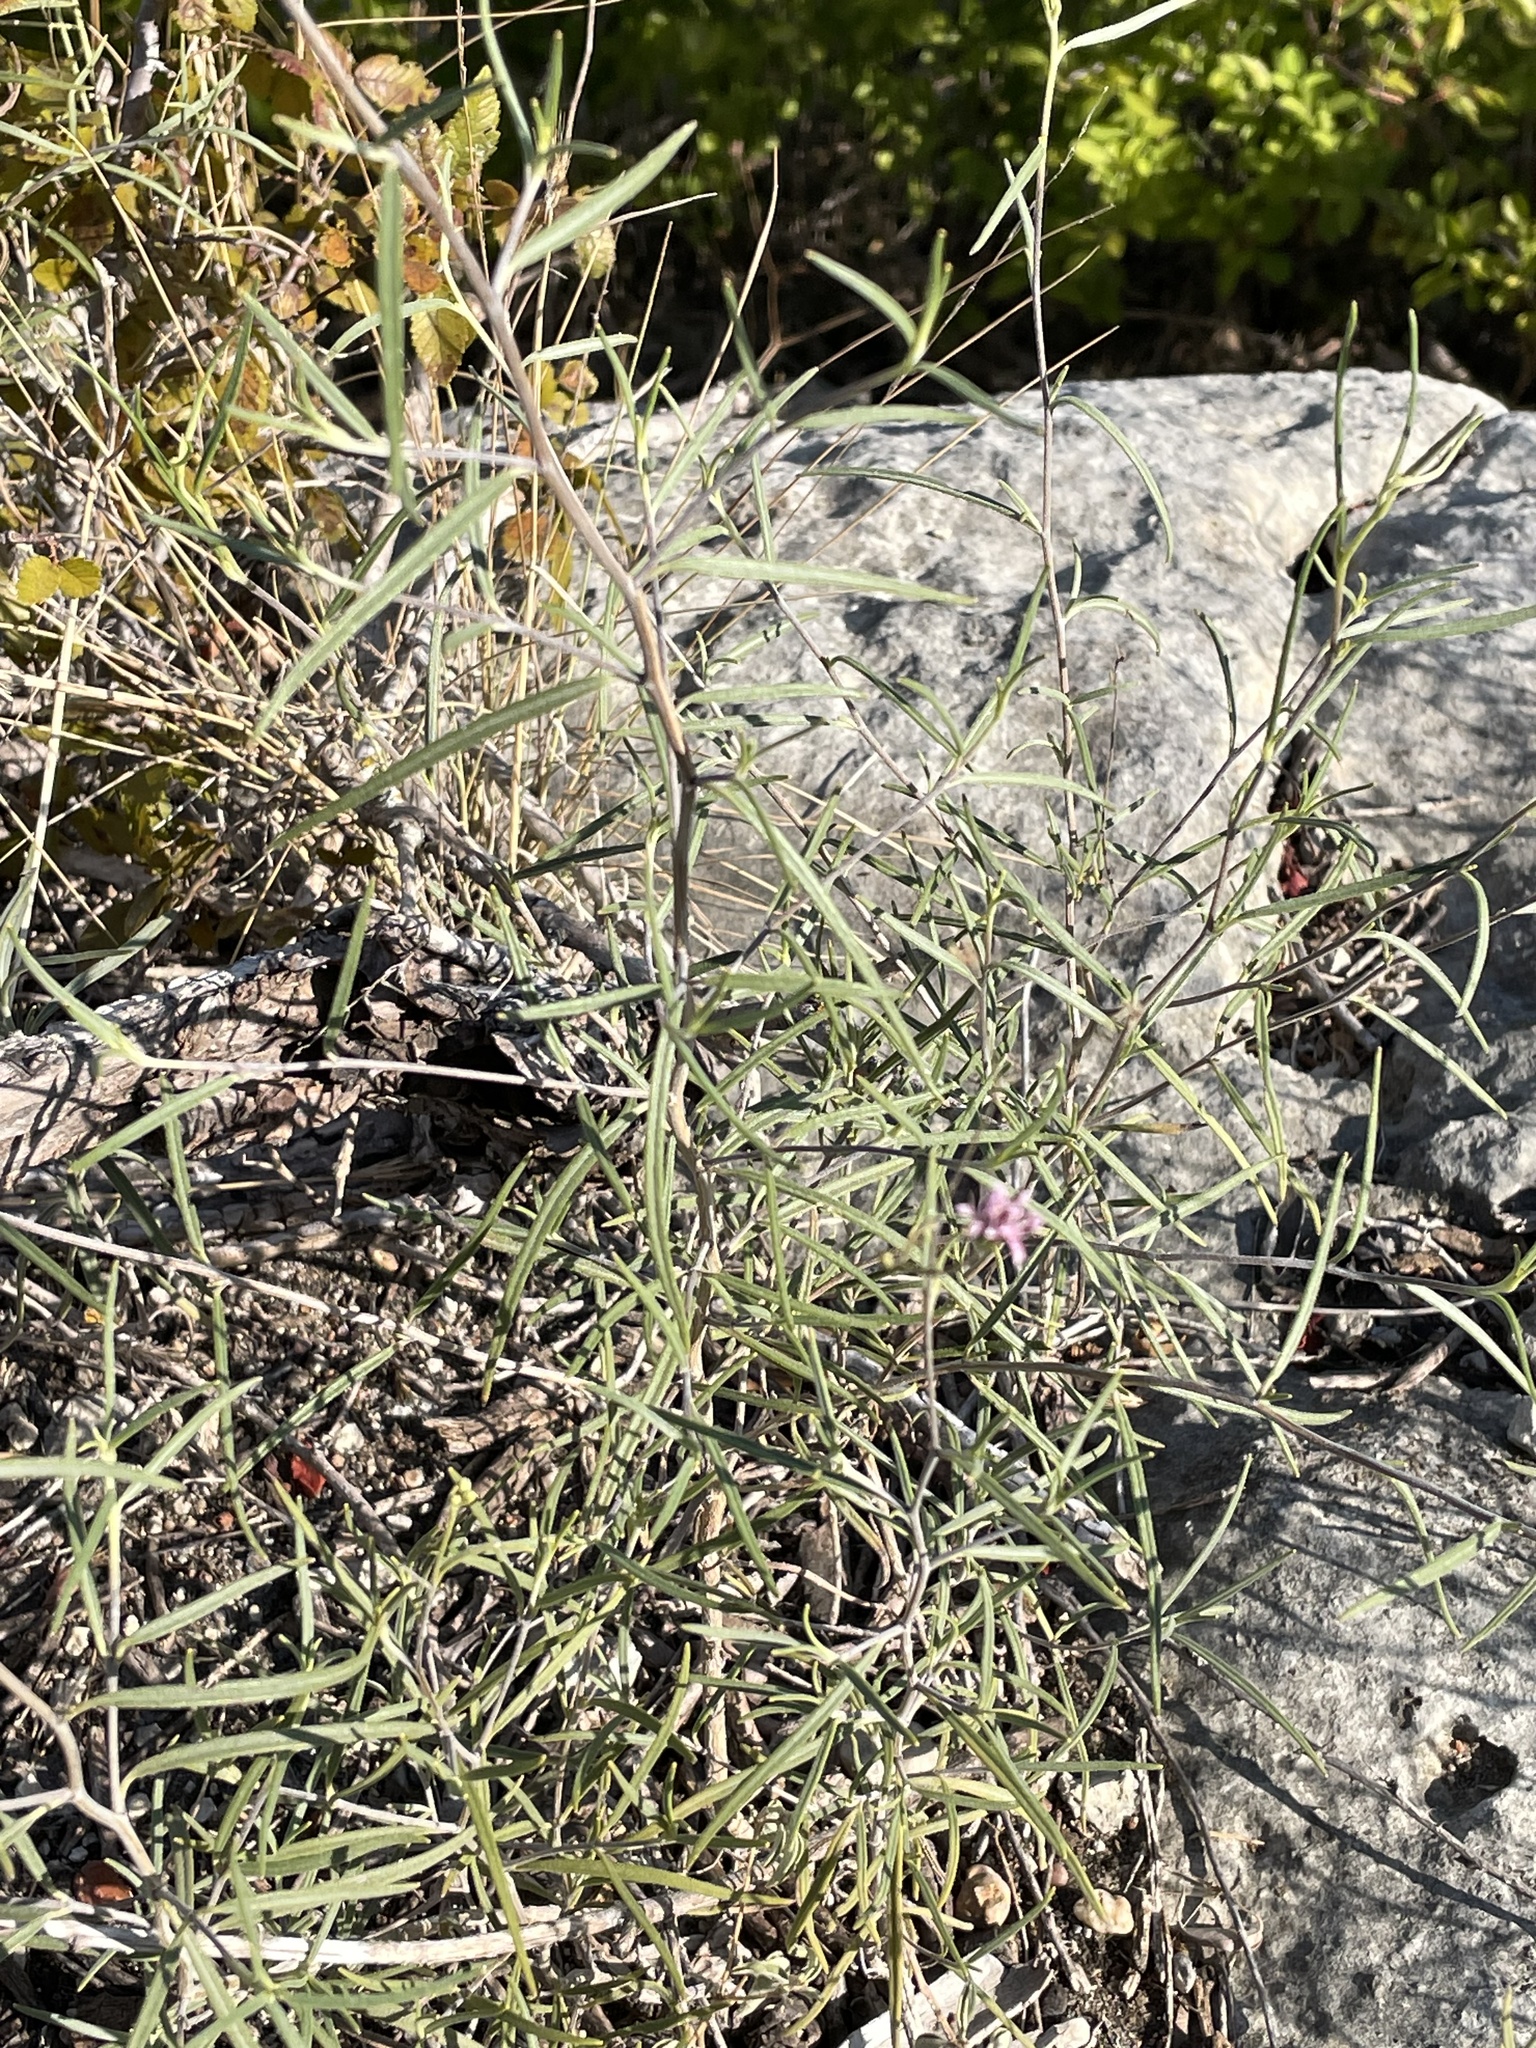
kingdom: Plantae
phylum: Tracheophyta
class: Magnoliopsida
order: Asterales
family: Asteraceae
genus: Palafoxia
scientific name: Palafoxia callosa
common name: Small palafox
